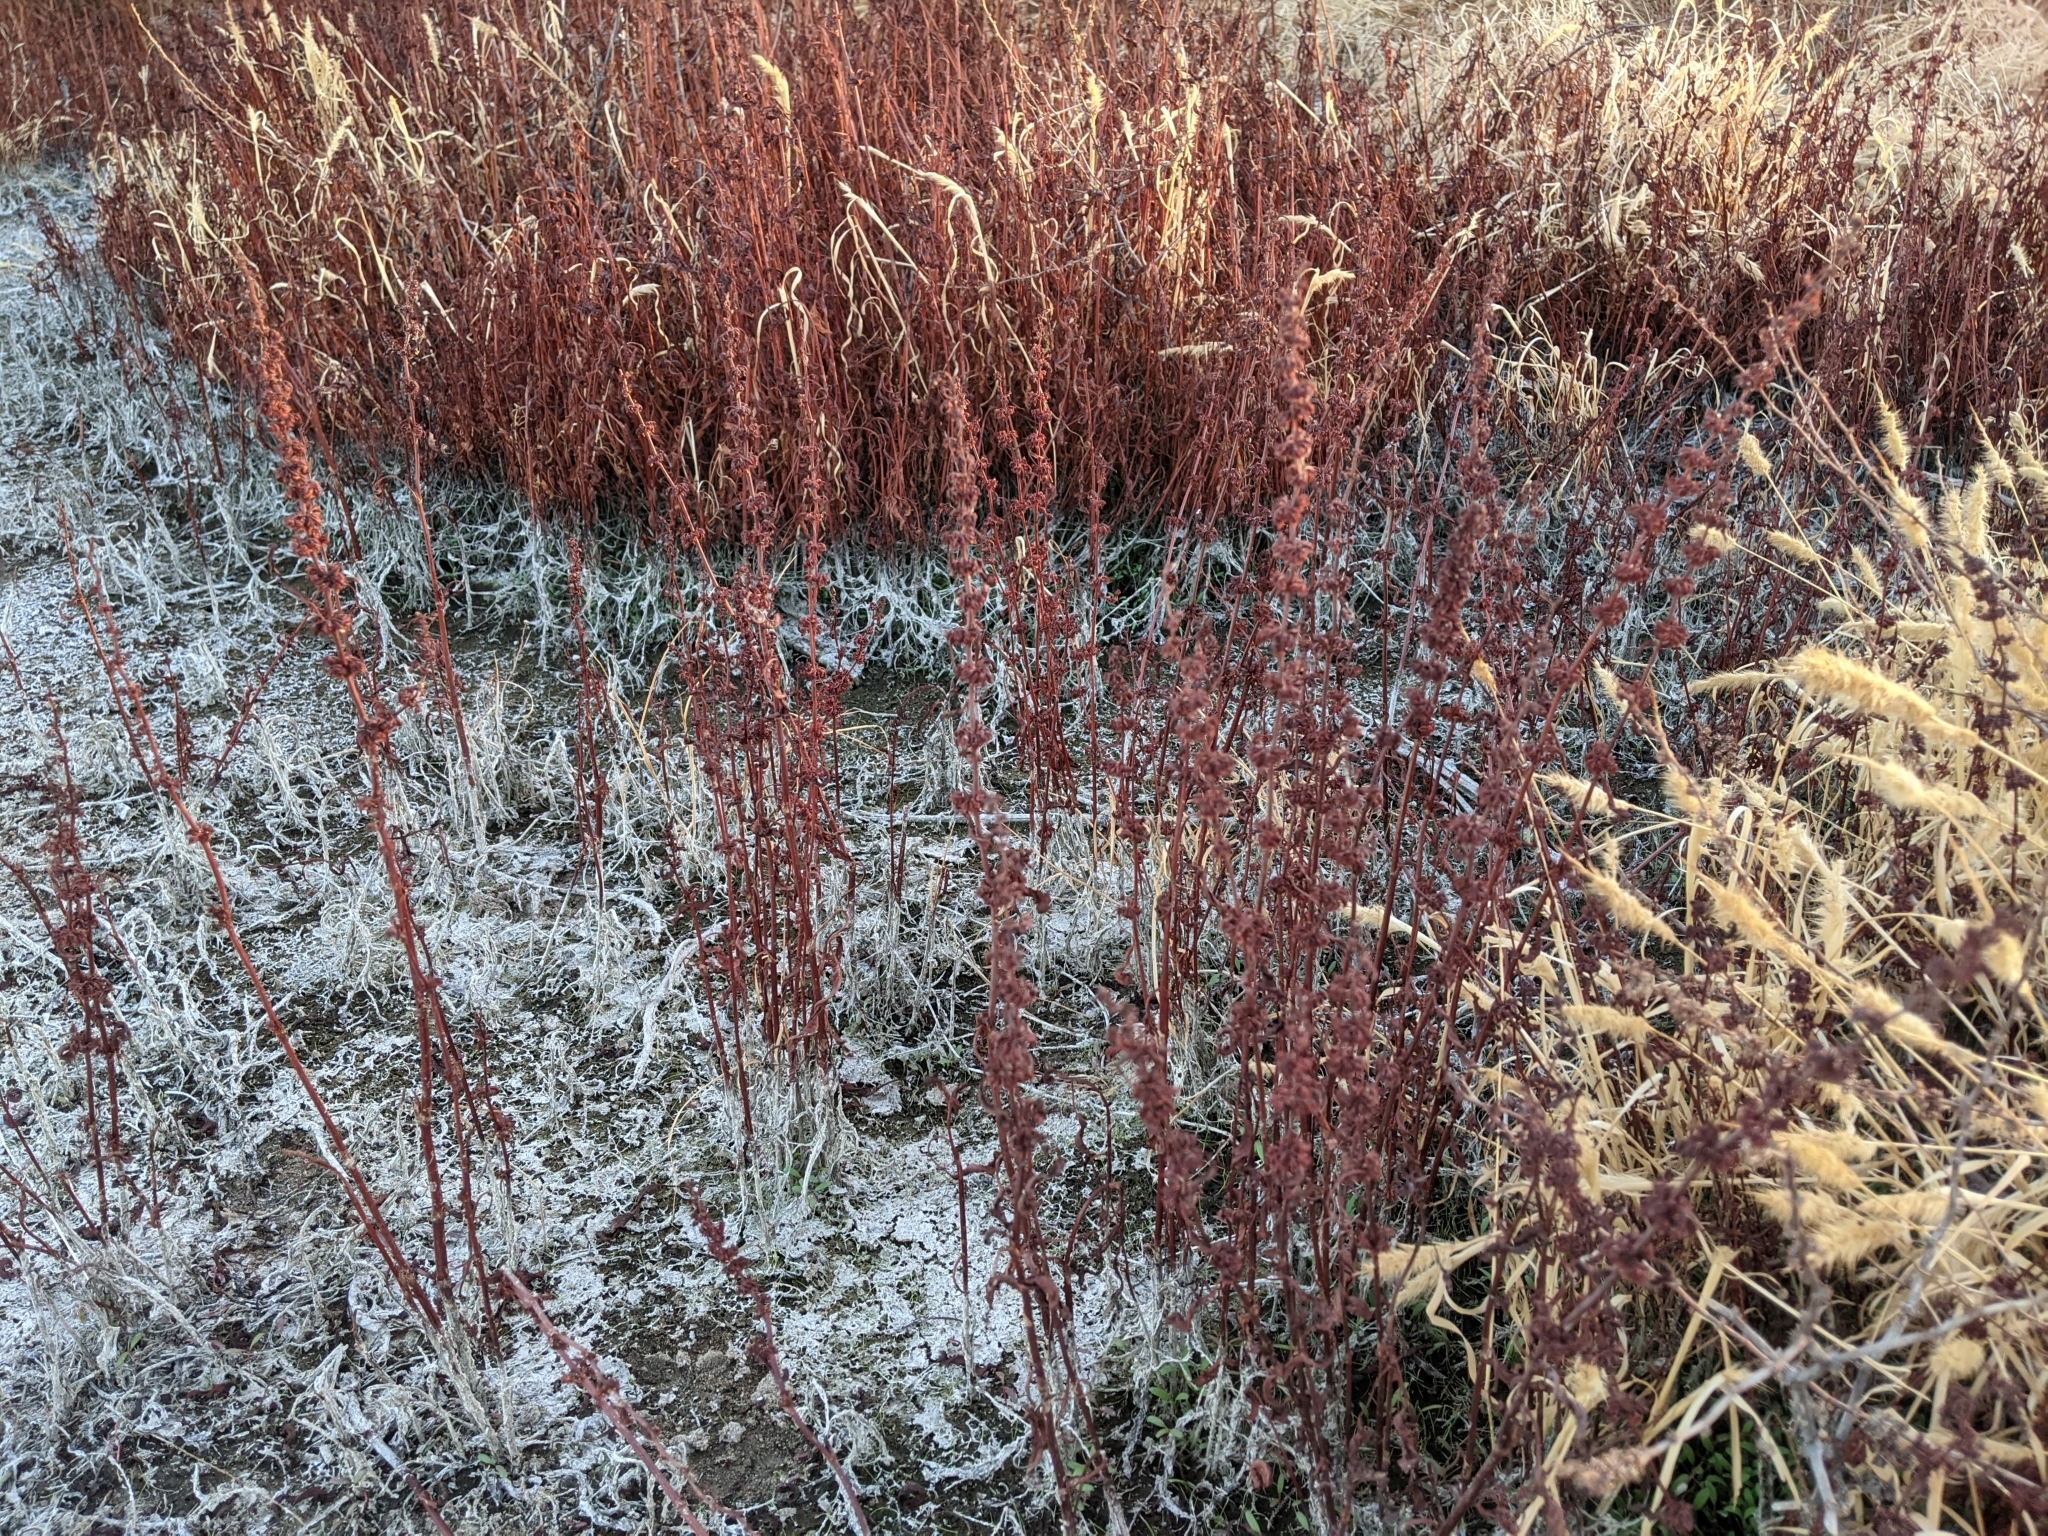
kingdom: Plantae
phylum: Tracheophyta
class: Magnoliopsida
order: Caryophyllales
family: Polygonaceae
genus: Rumex
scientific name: Rumex dentatus
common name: Toothed dock
